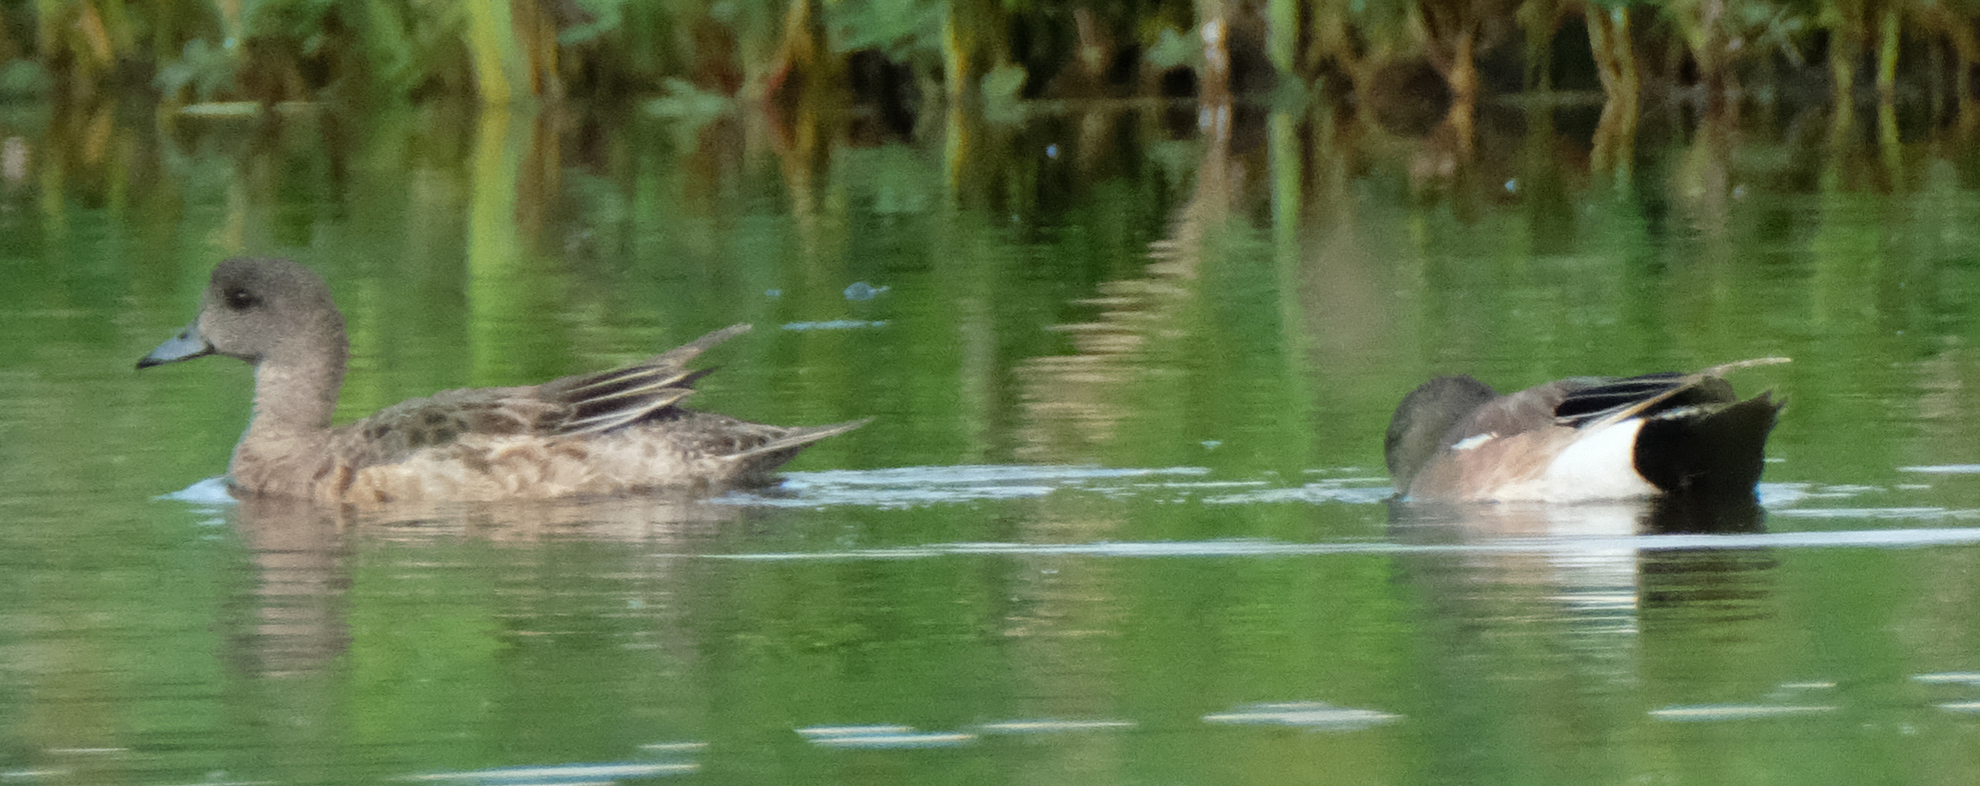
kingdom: Animalia
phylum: Chordata
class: Aves
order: Anseriformes
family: Anatidae
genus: Mareca
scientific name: Mareca americana
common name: American wigeon
